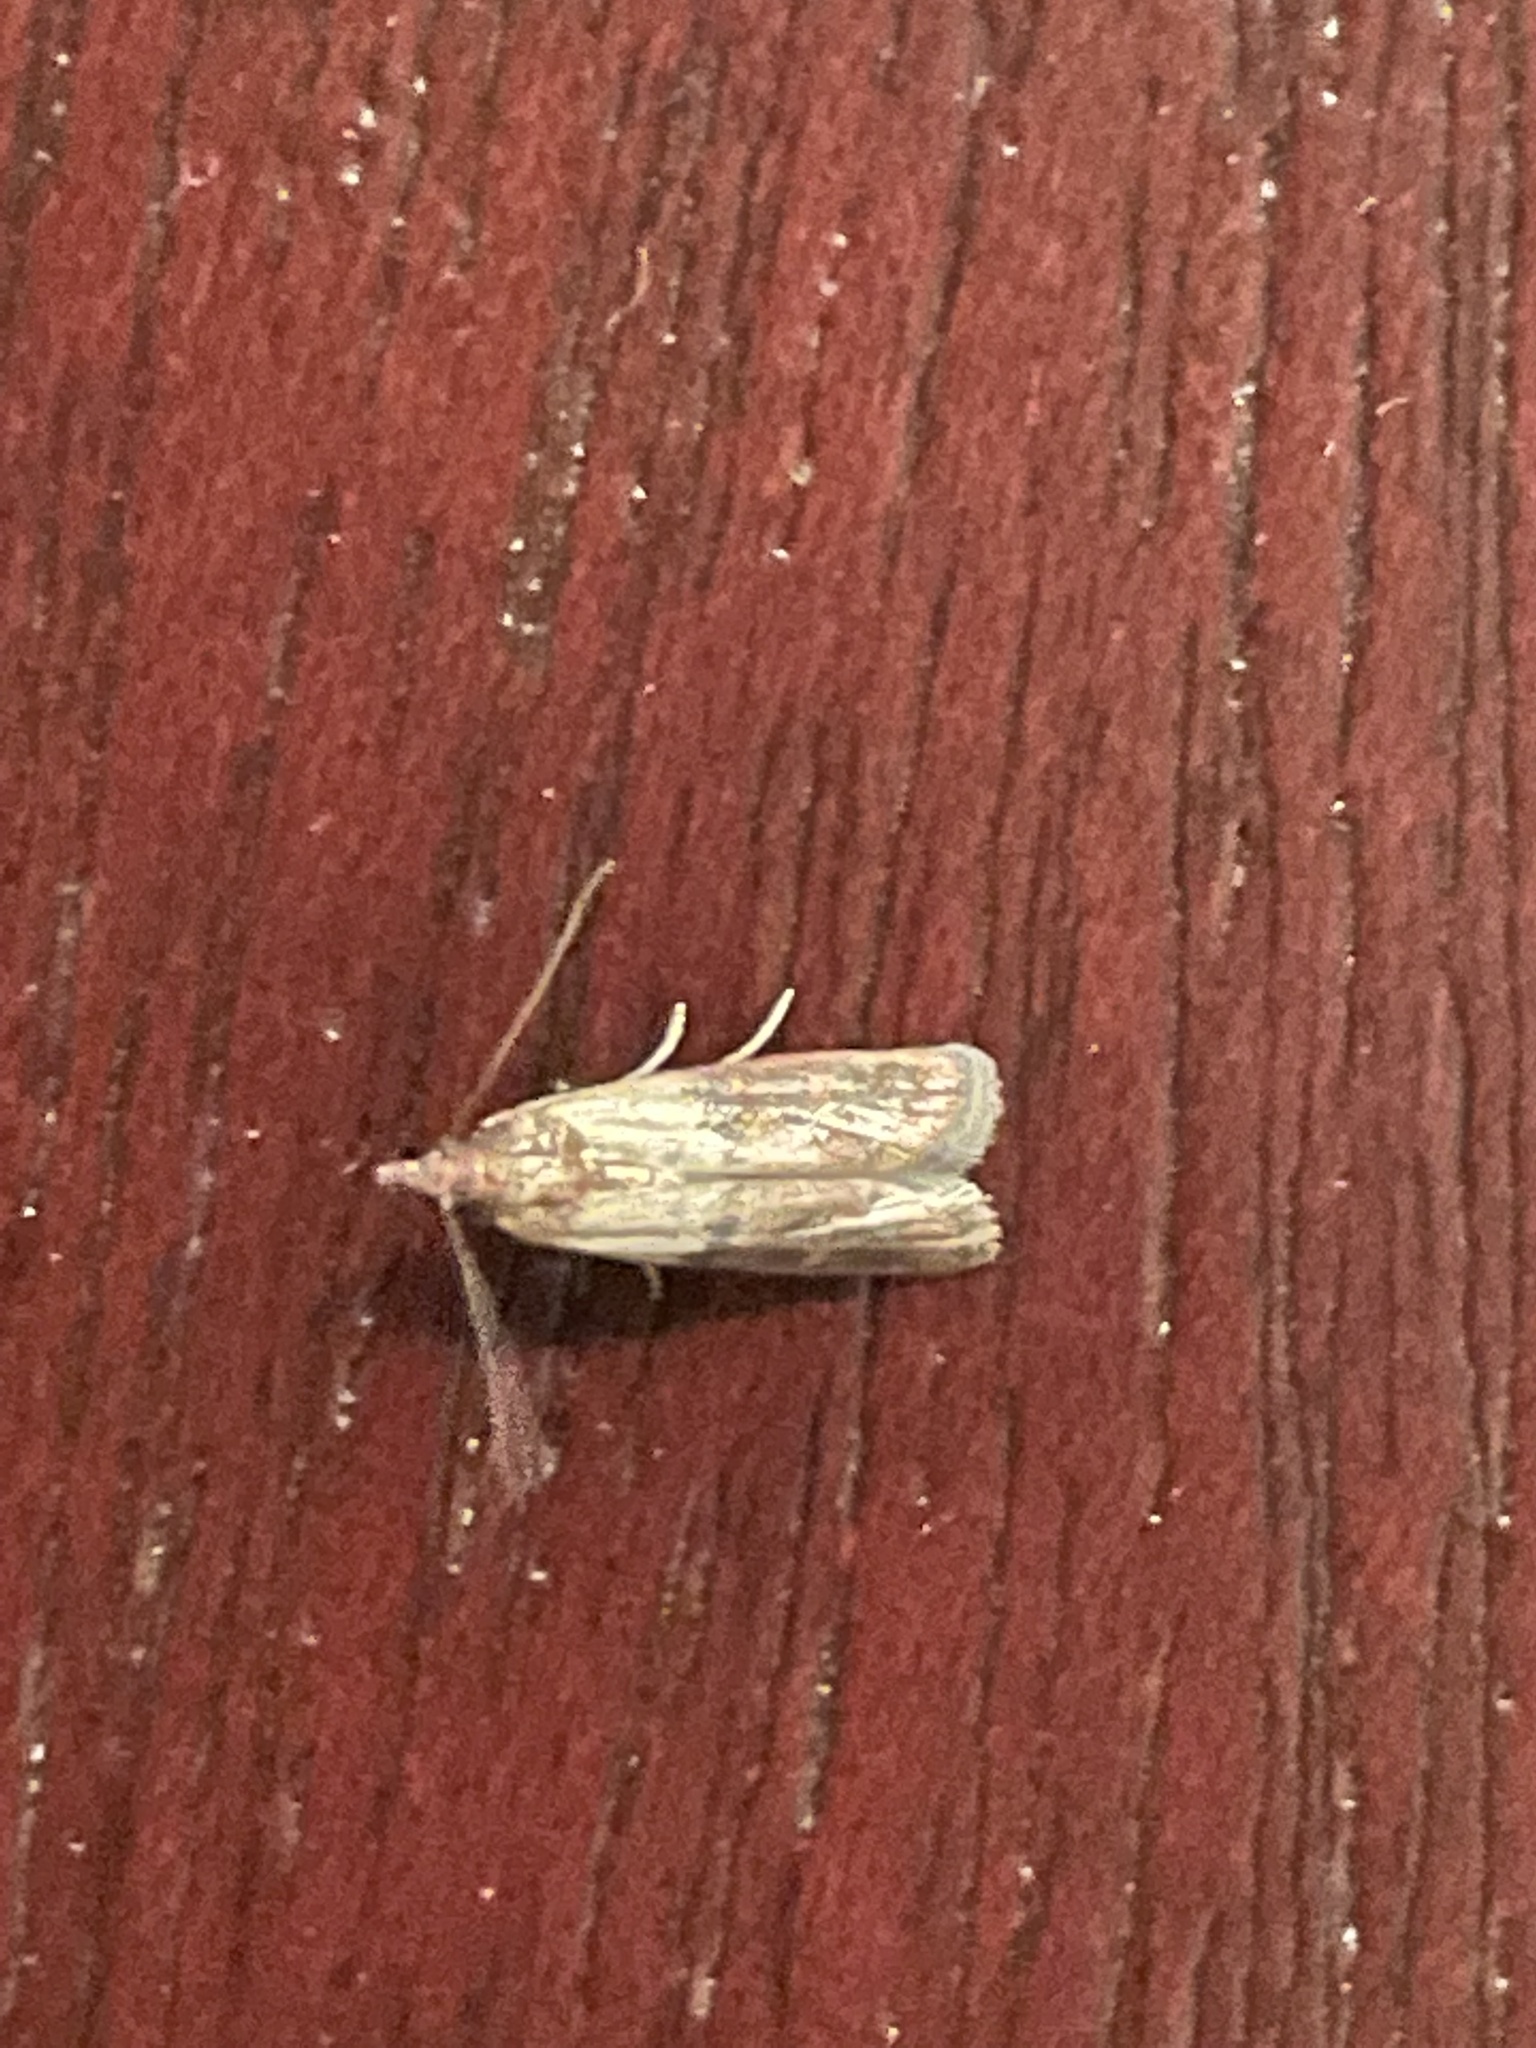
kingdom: Animalia
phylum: Arthropoda
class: Insecta
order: Lepidoptera
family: Pyralidae
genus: Plodia
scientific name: Plodia interpunctella
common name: Indian meal moth
